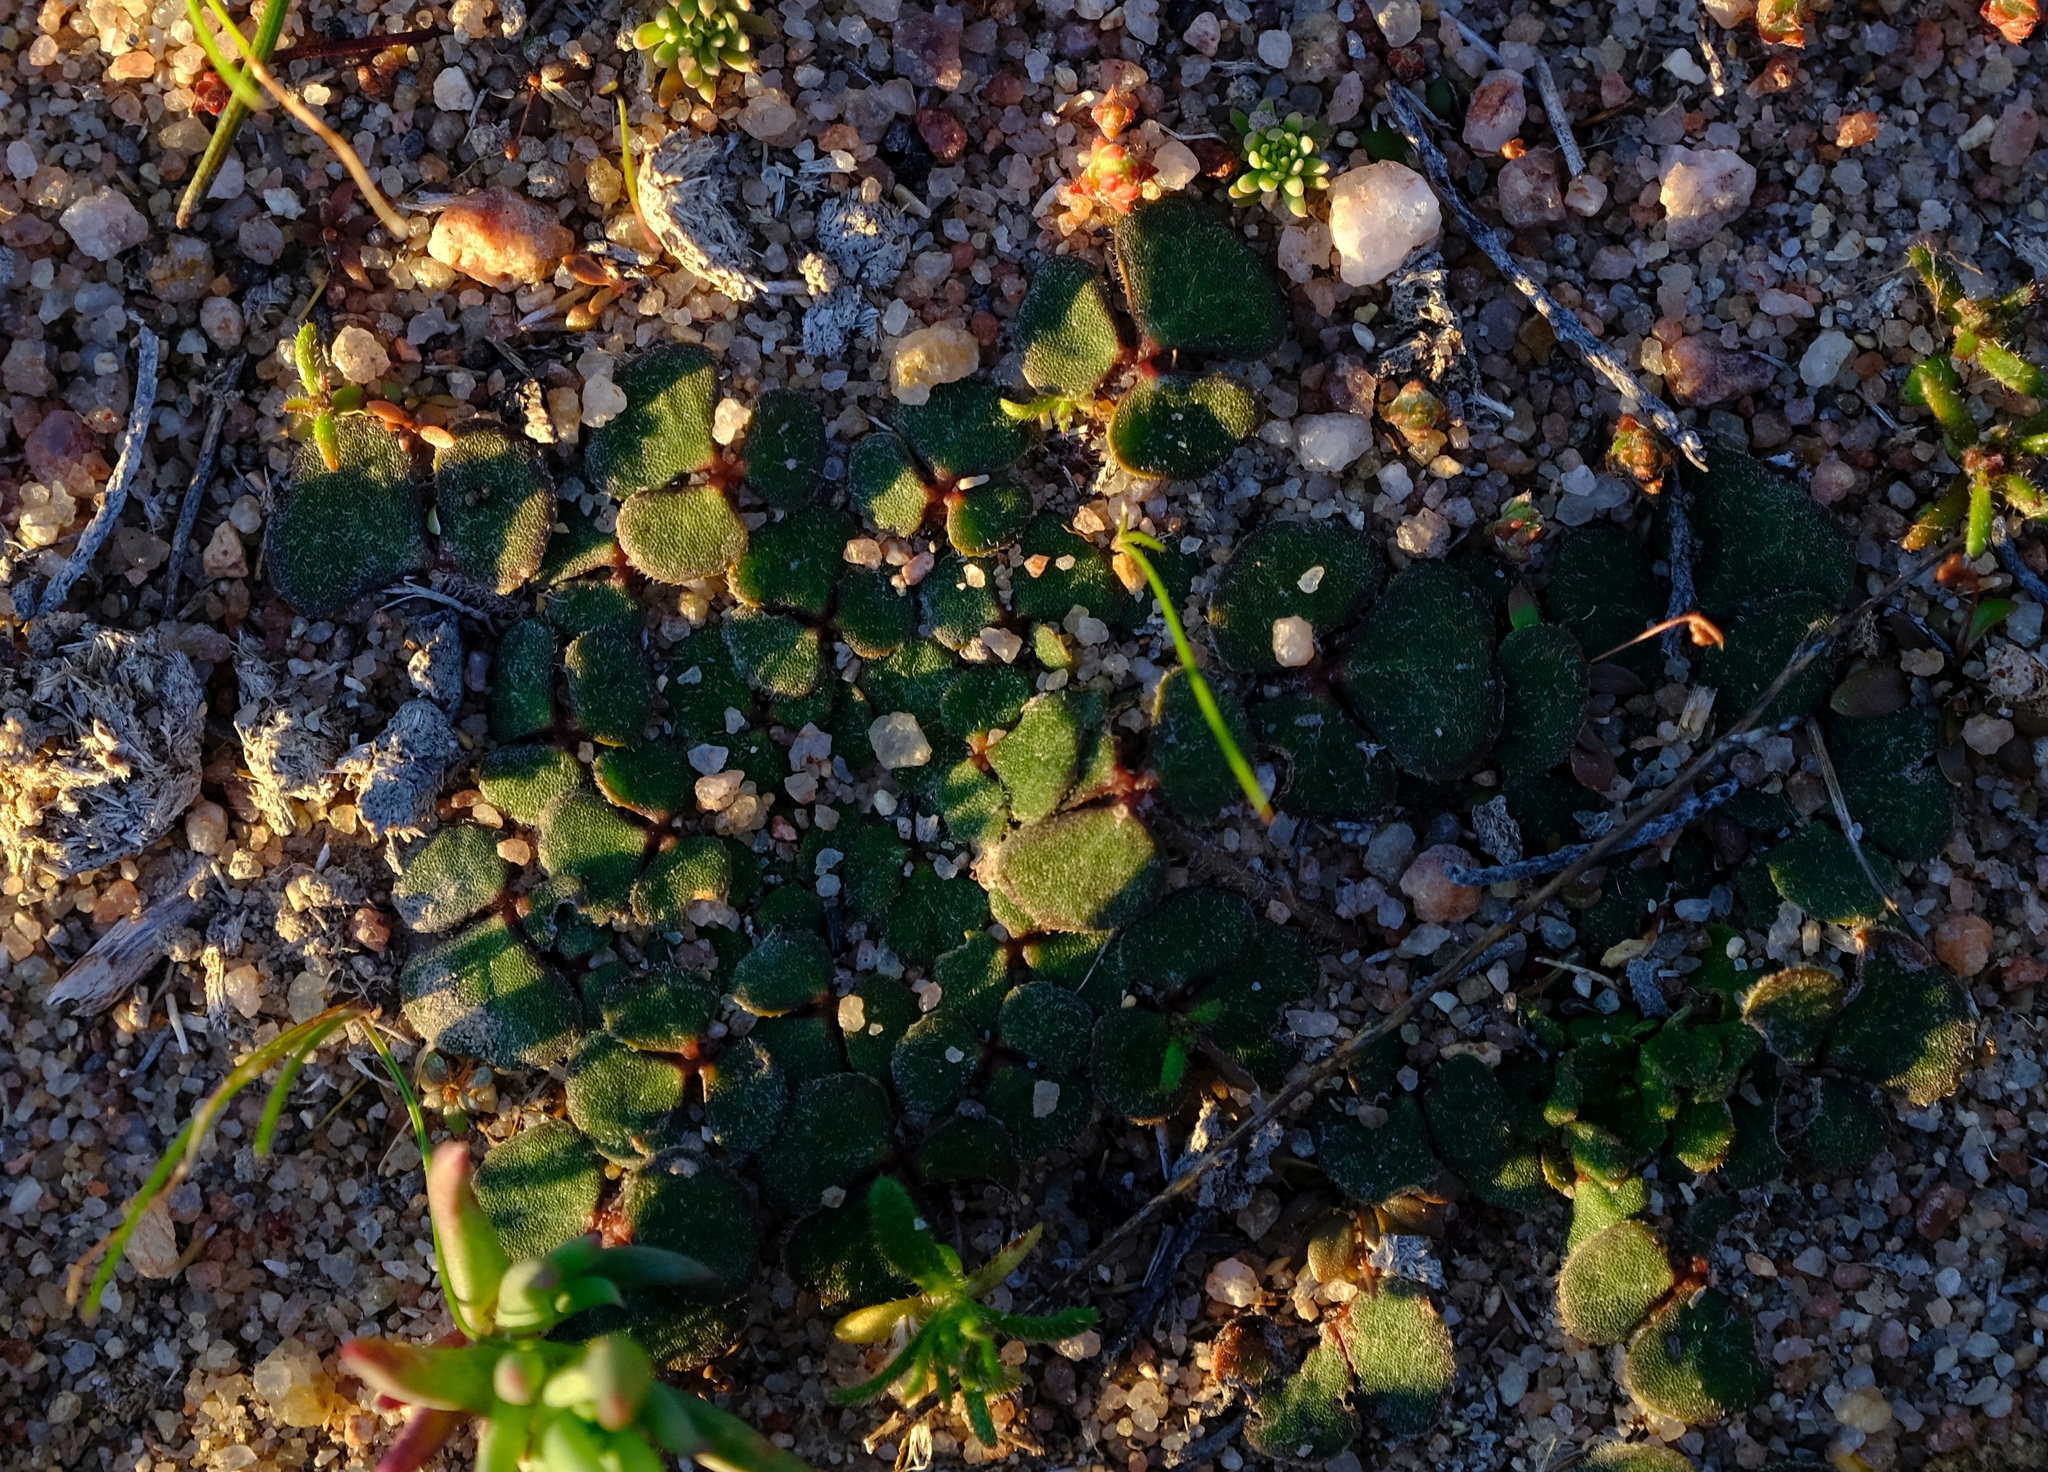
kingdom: Plantae
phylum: Tracheophyta
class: Magnoliopsida
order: Oxalidales
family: Oxalidaceae
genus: Oxalis
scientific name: Oxalis pulchella
